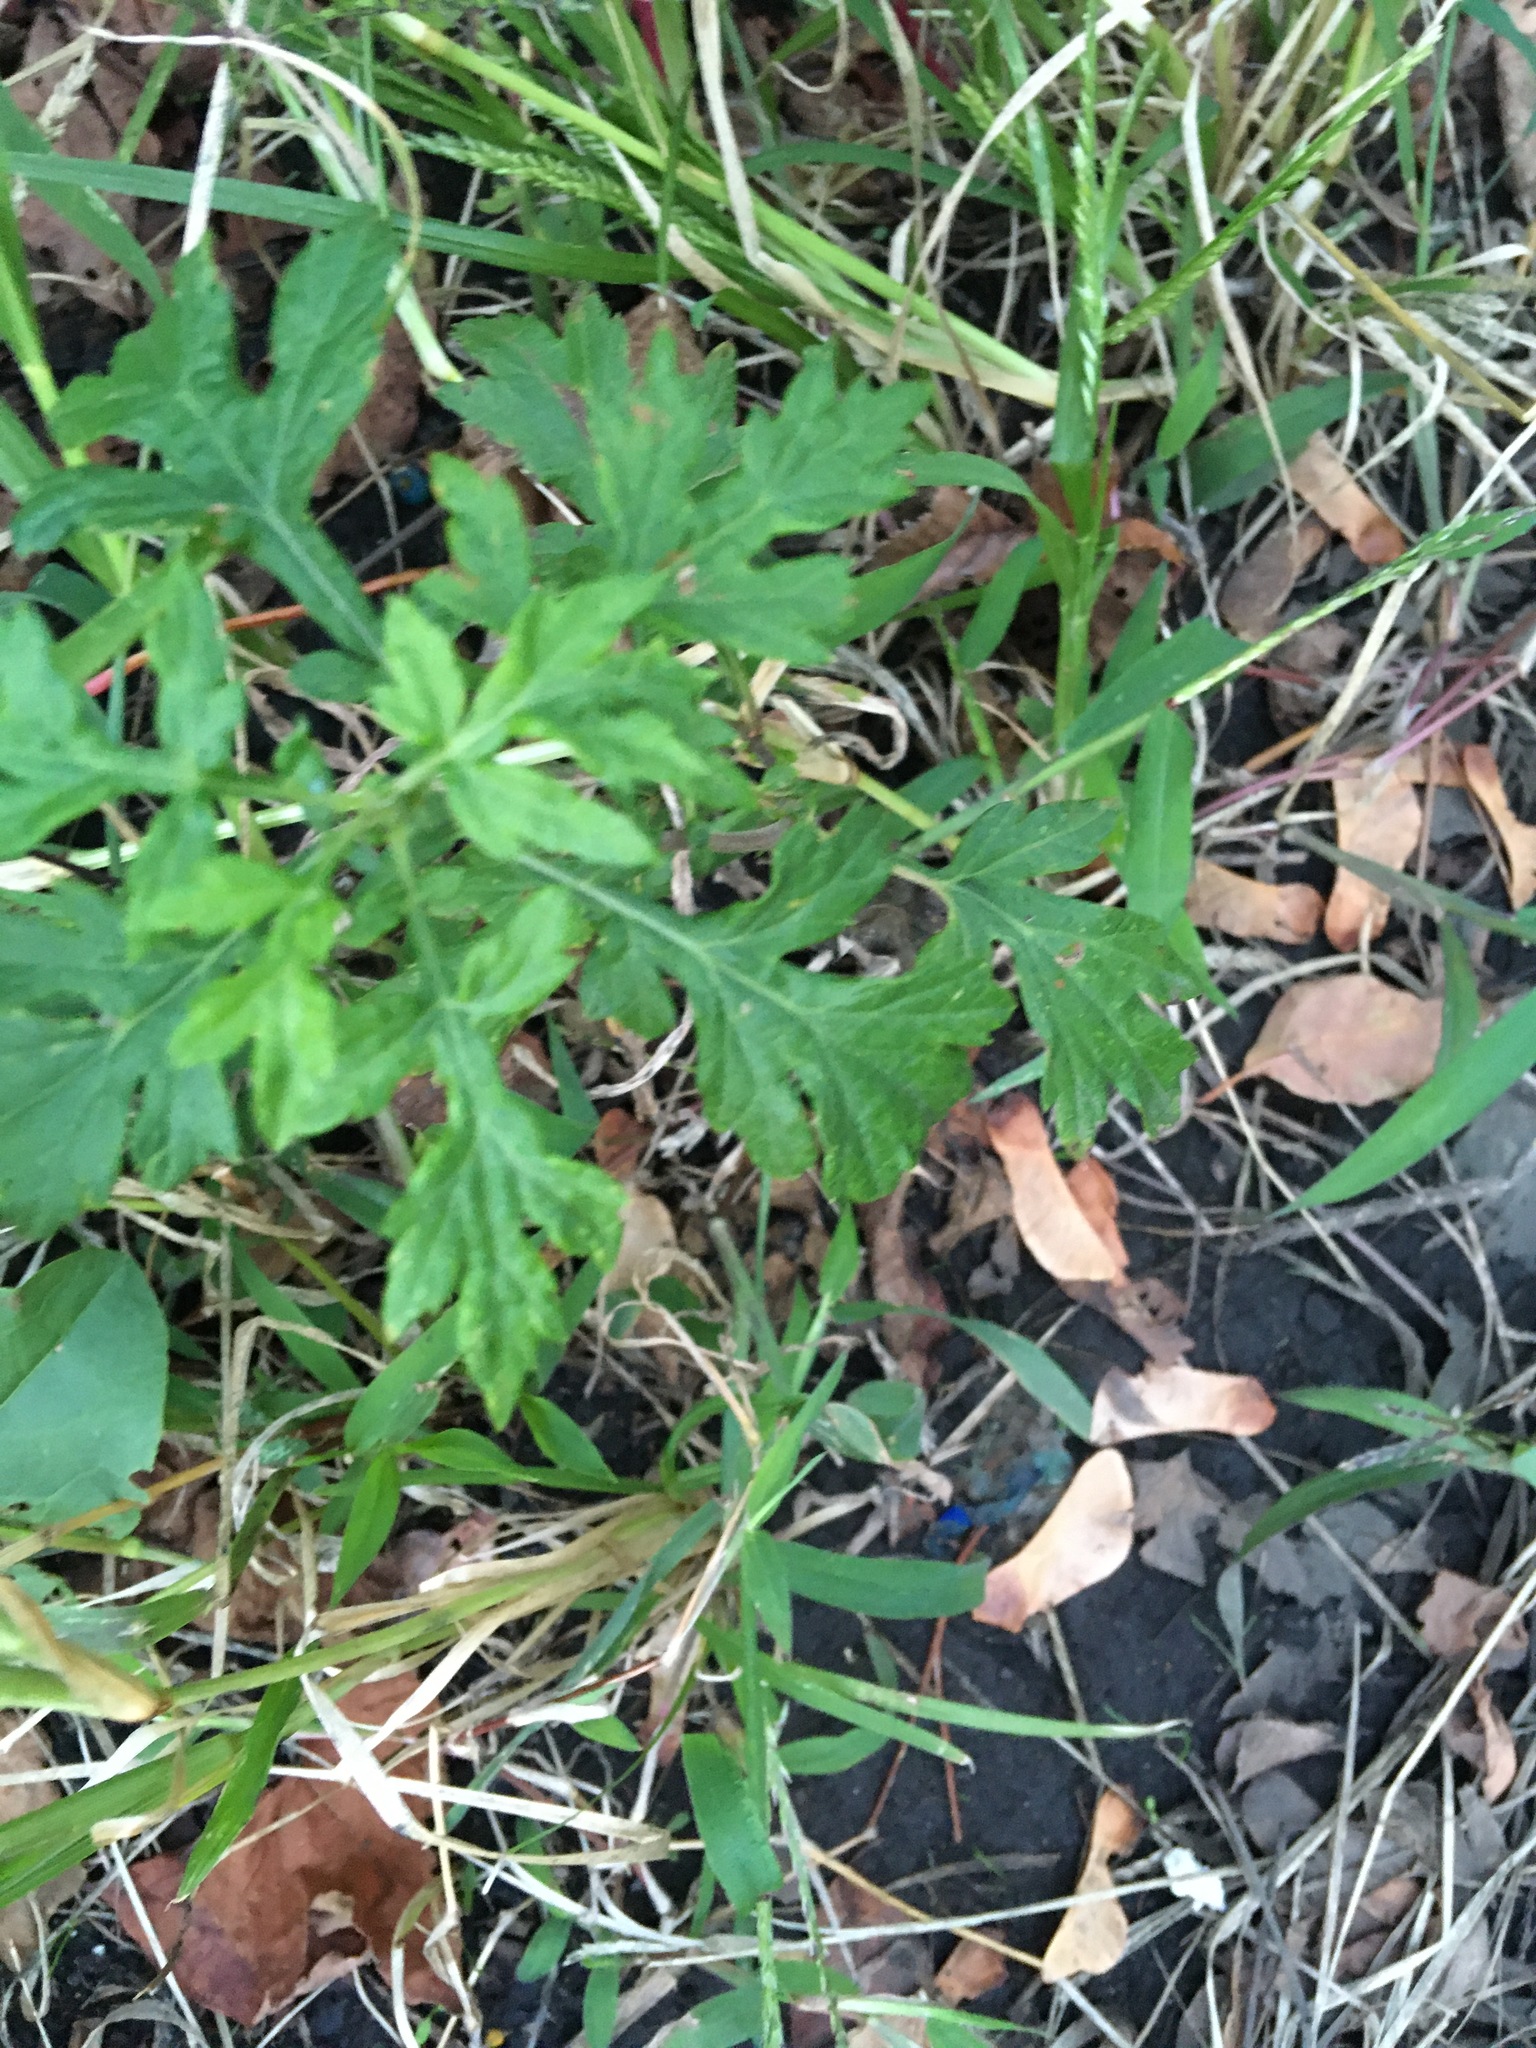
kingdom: Plantae
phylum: Tracheophyta
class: Magnoliopsida
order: Asterales
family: Asteraceae
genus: Artemisia
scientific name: Artemisia vulgaris
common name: Mugwort
